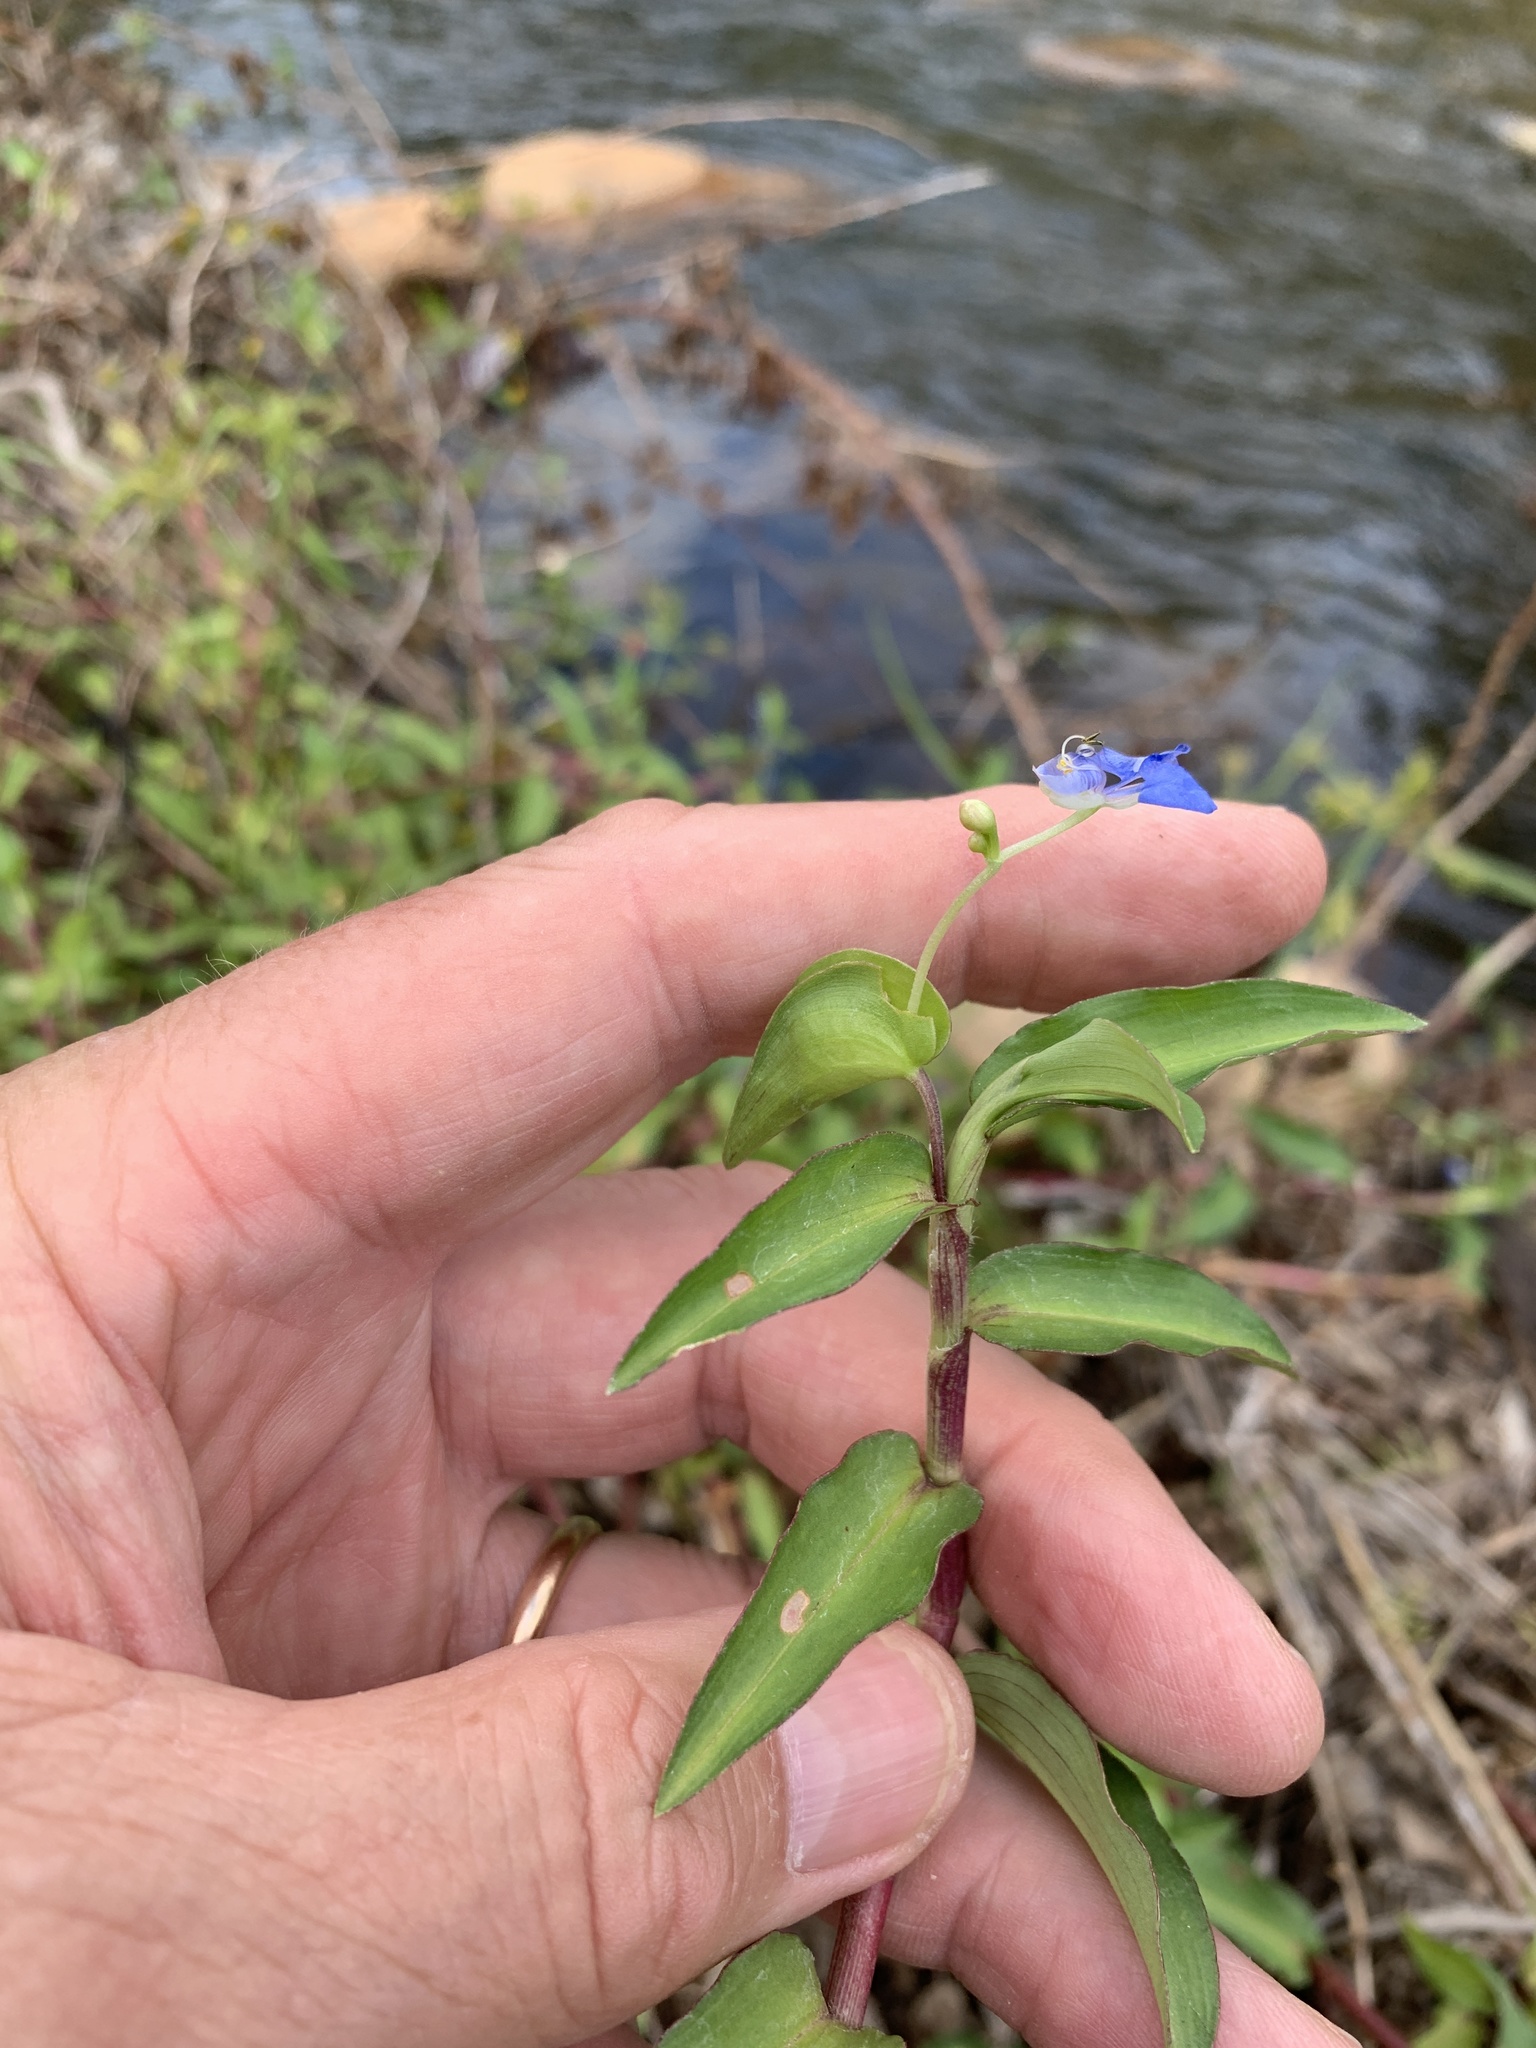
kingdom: Plantae
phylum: Tracheophyta
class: Liliopsida
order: Commelinales
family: Commelinaceae
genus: Commelina
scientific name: Commelina diffusa
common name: Climbing dayflower
